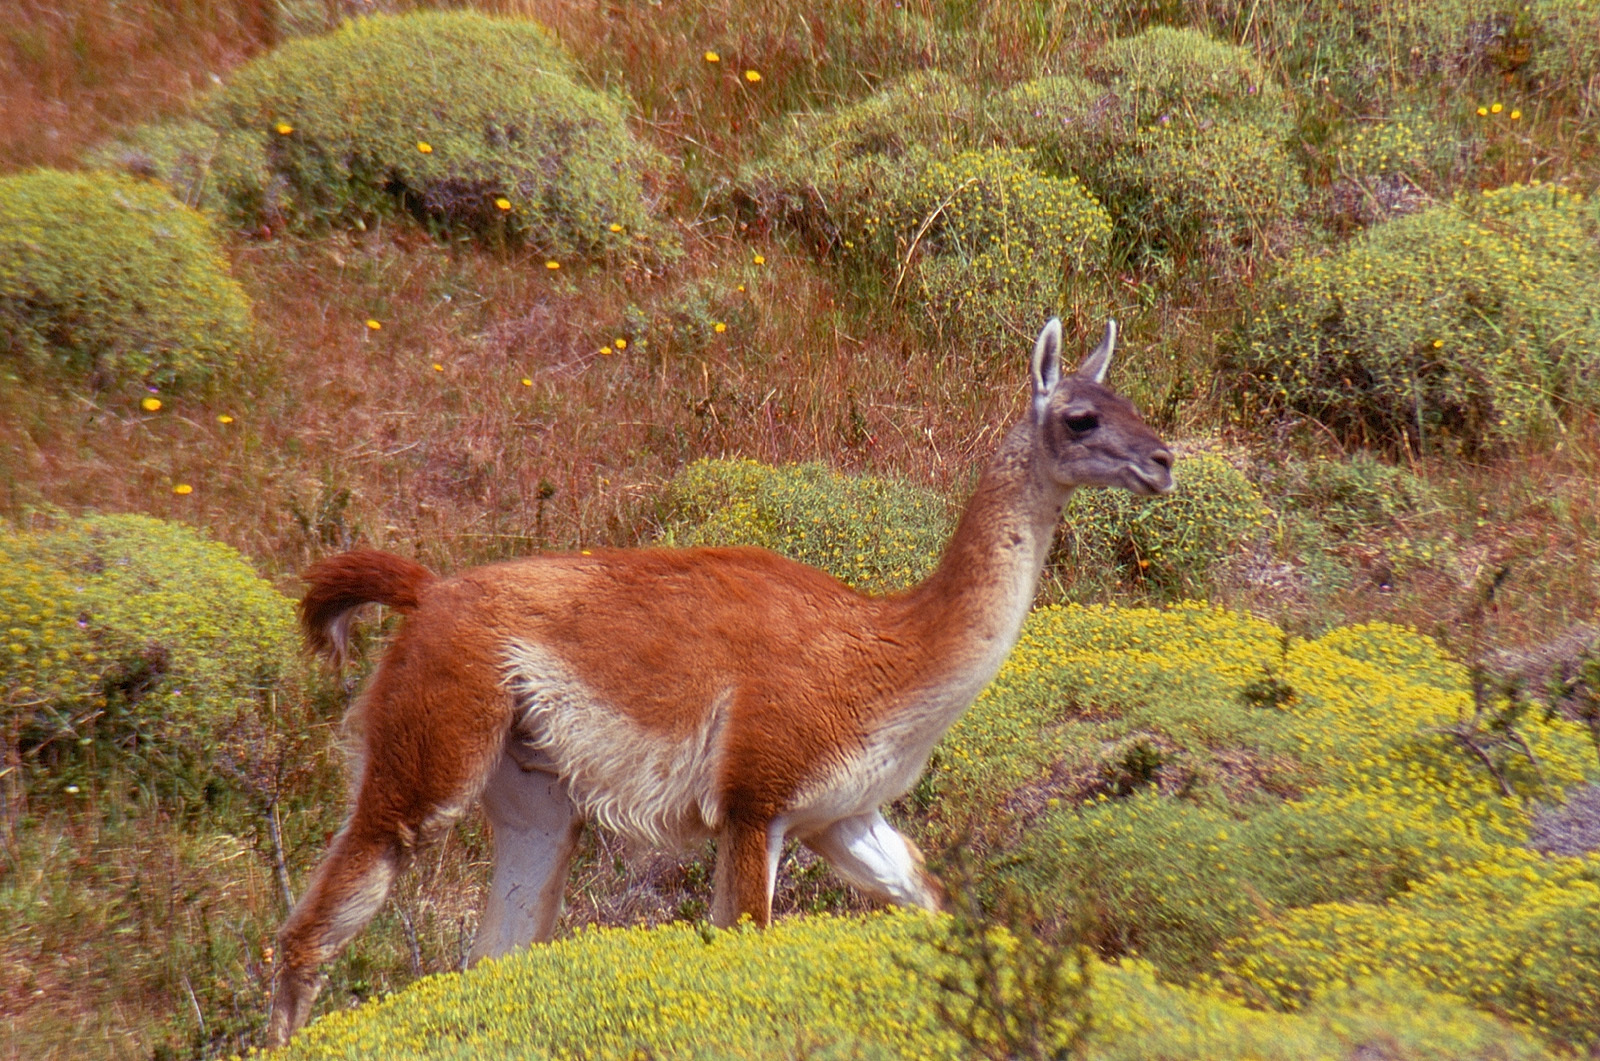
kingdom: Animalia
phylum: Chordata
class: Mammalia
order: Artiodactyla
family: Camelidae
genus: Lama
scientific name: Lama glama
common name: Llama
